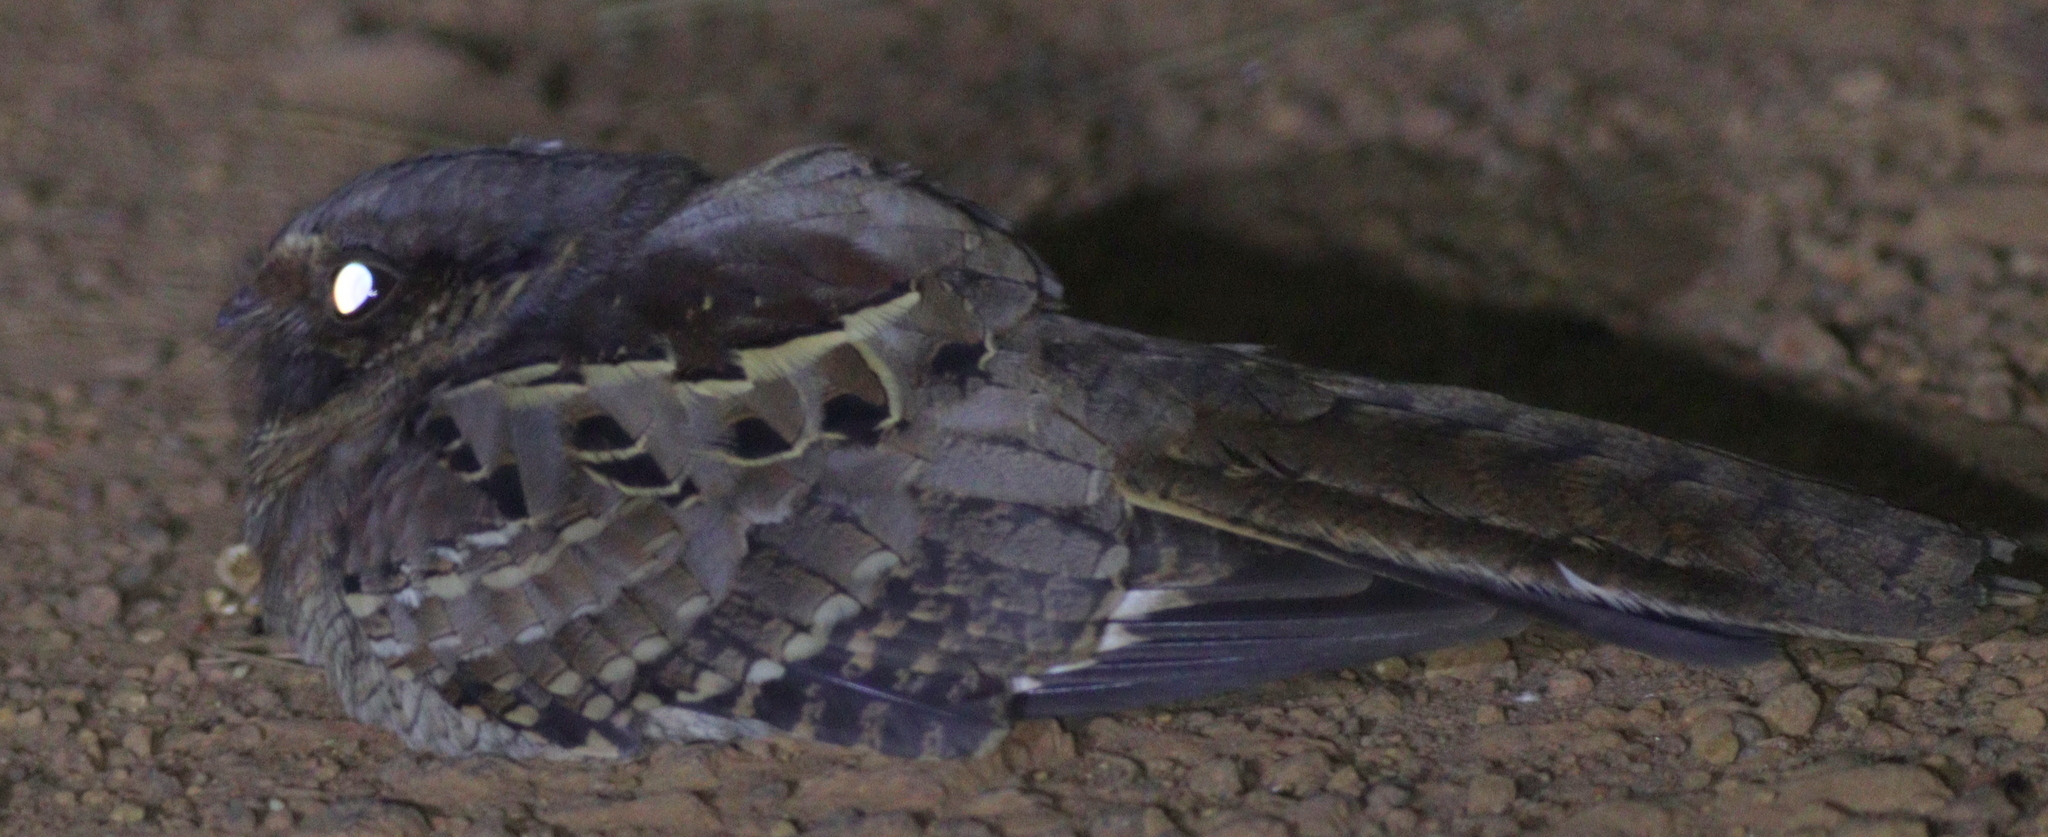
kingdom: Animalia
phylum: Chordata
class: Aves
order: Caprimulgiformes
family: Caprimulgidae
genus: Nyctidromus
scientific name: Nyctidromus albicollis
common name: Pauraque
